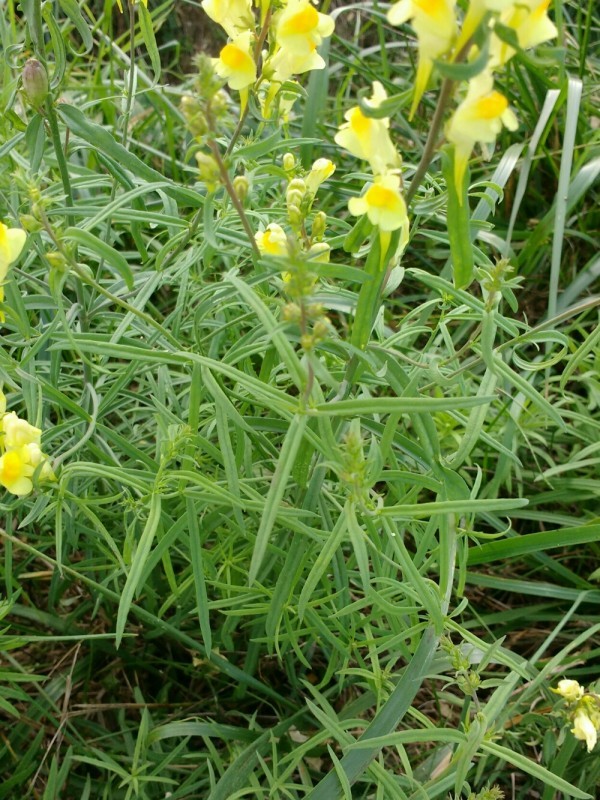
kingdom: Plantae
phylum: Tracheophyta
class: Magnoliopsida
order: Lamiales
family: Plantaginaceae
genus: Linaria
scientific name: Linaria vulgaris
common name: Butter and eggs
